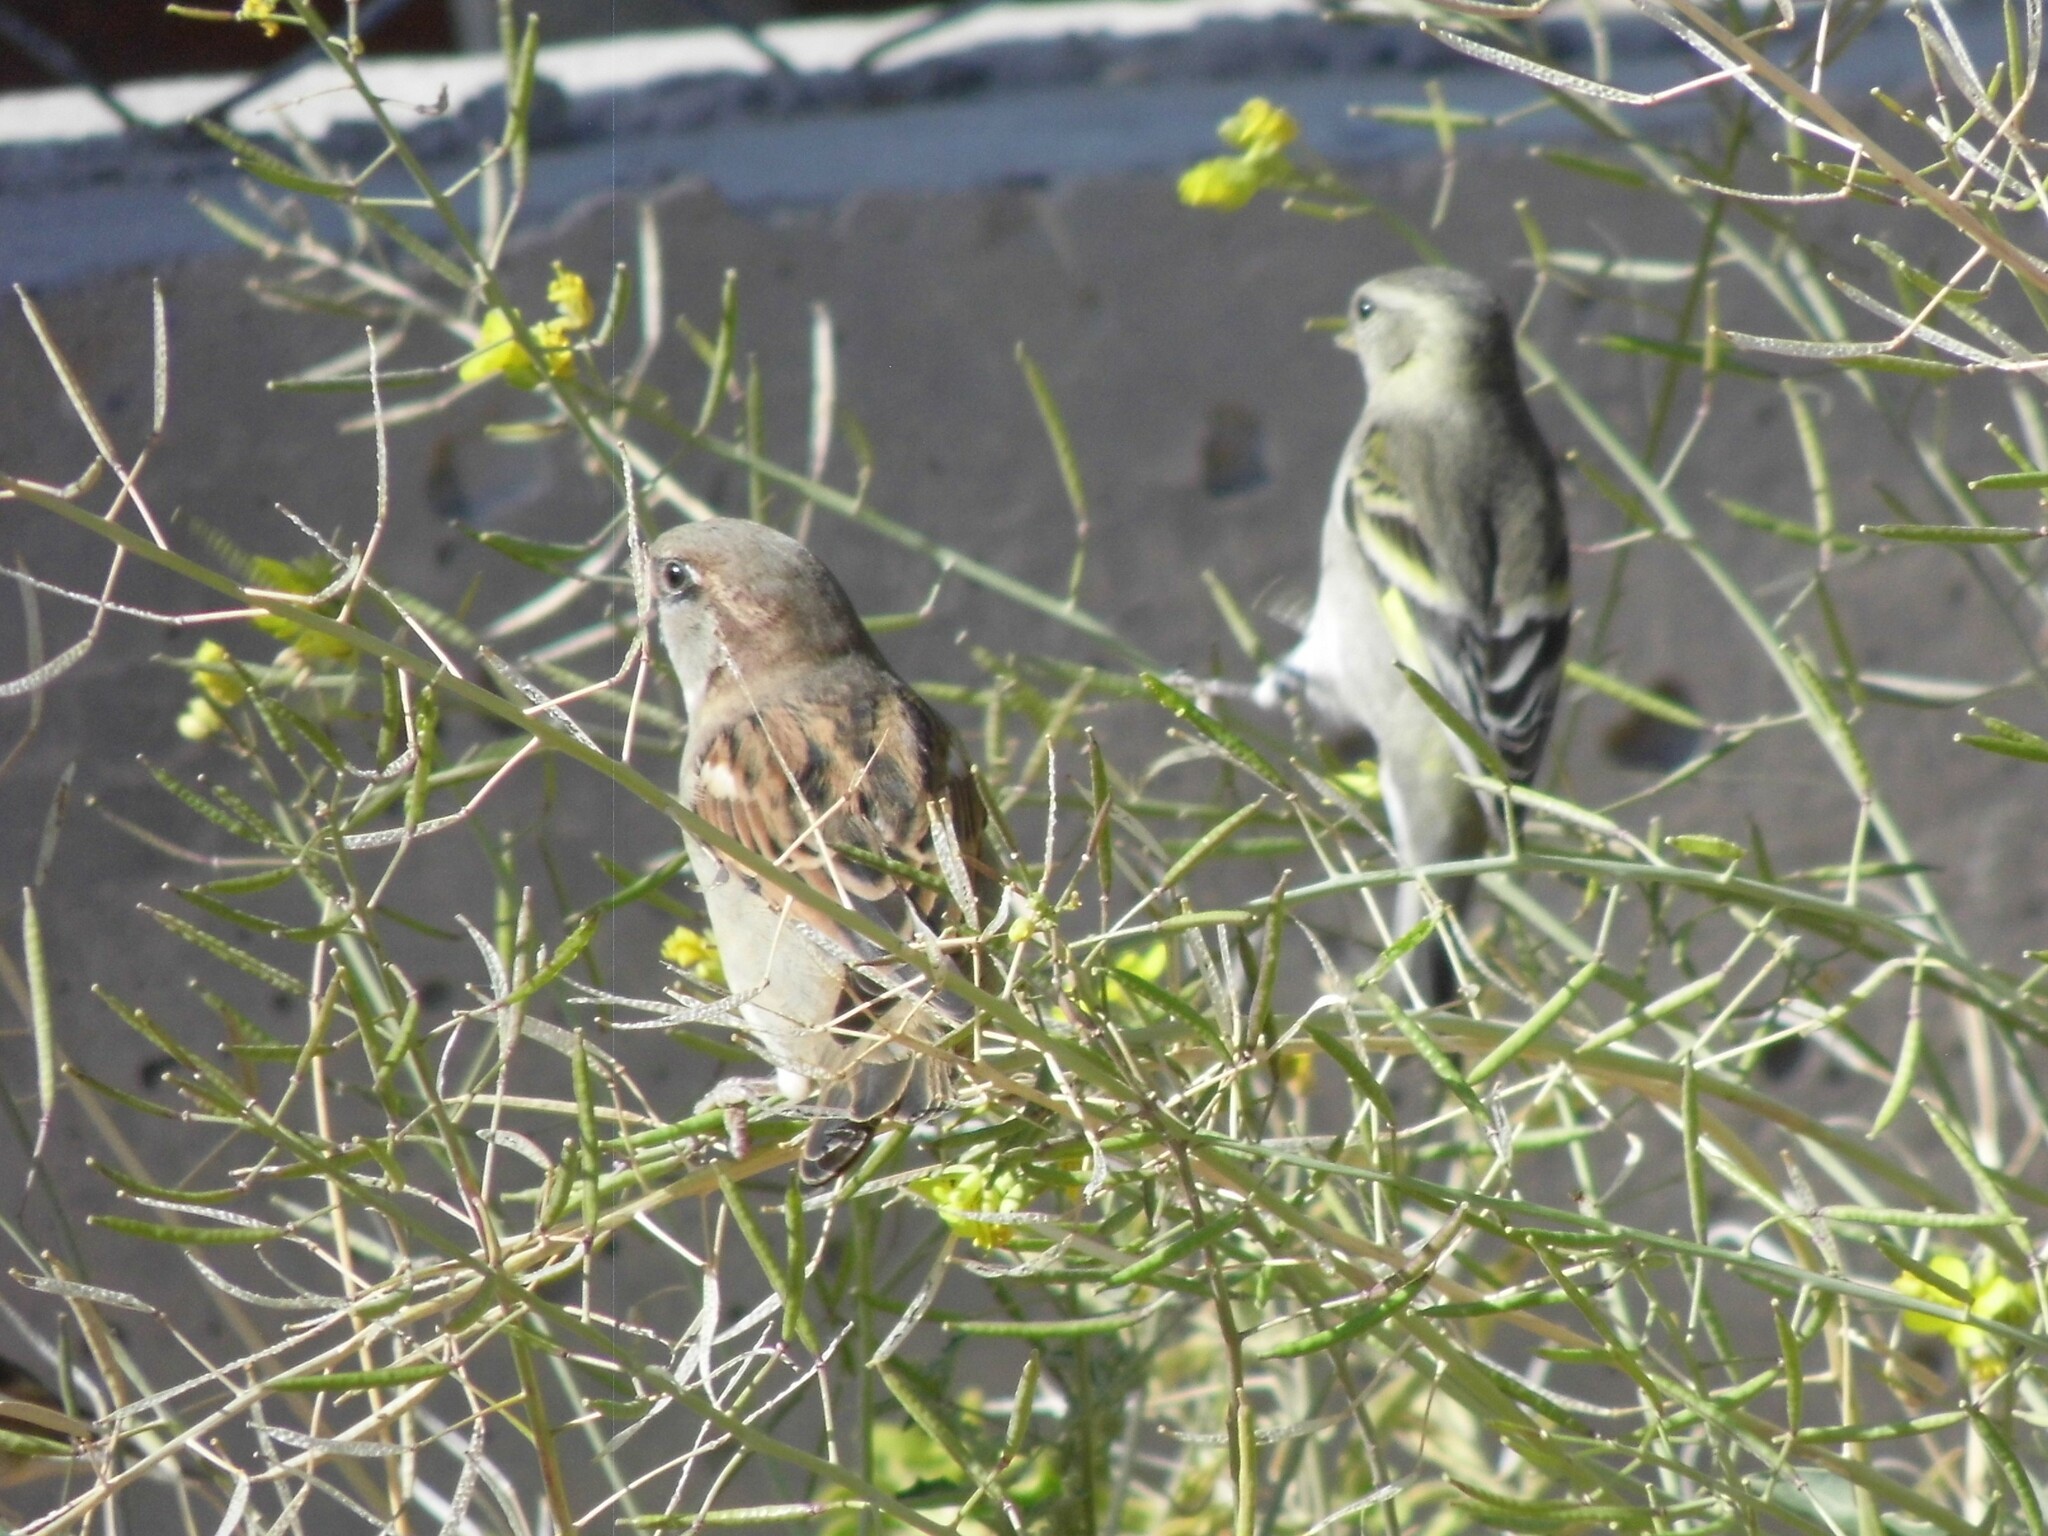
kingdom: Animalia
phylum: Chordata
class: Aves
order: Passeriformes
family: Passeridae
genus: Passer
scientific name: Passer domesticus
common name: House sparrow
